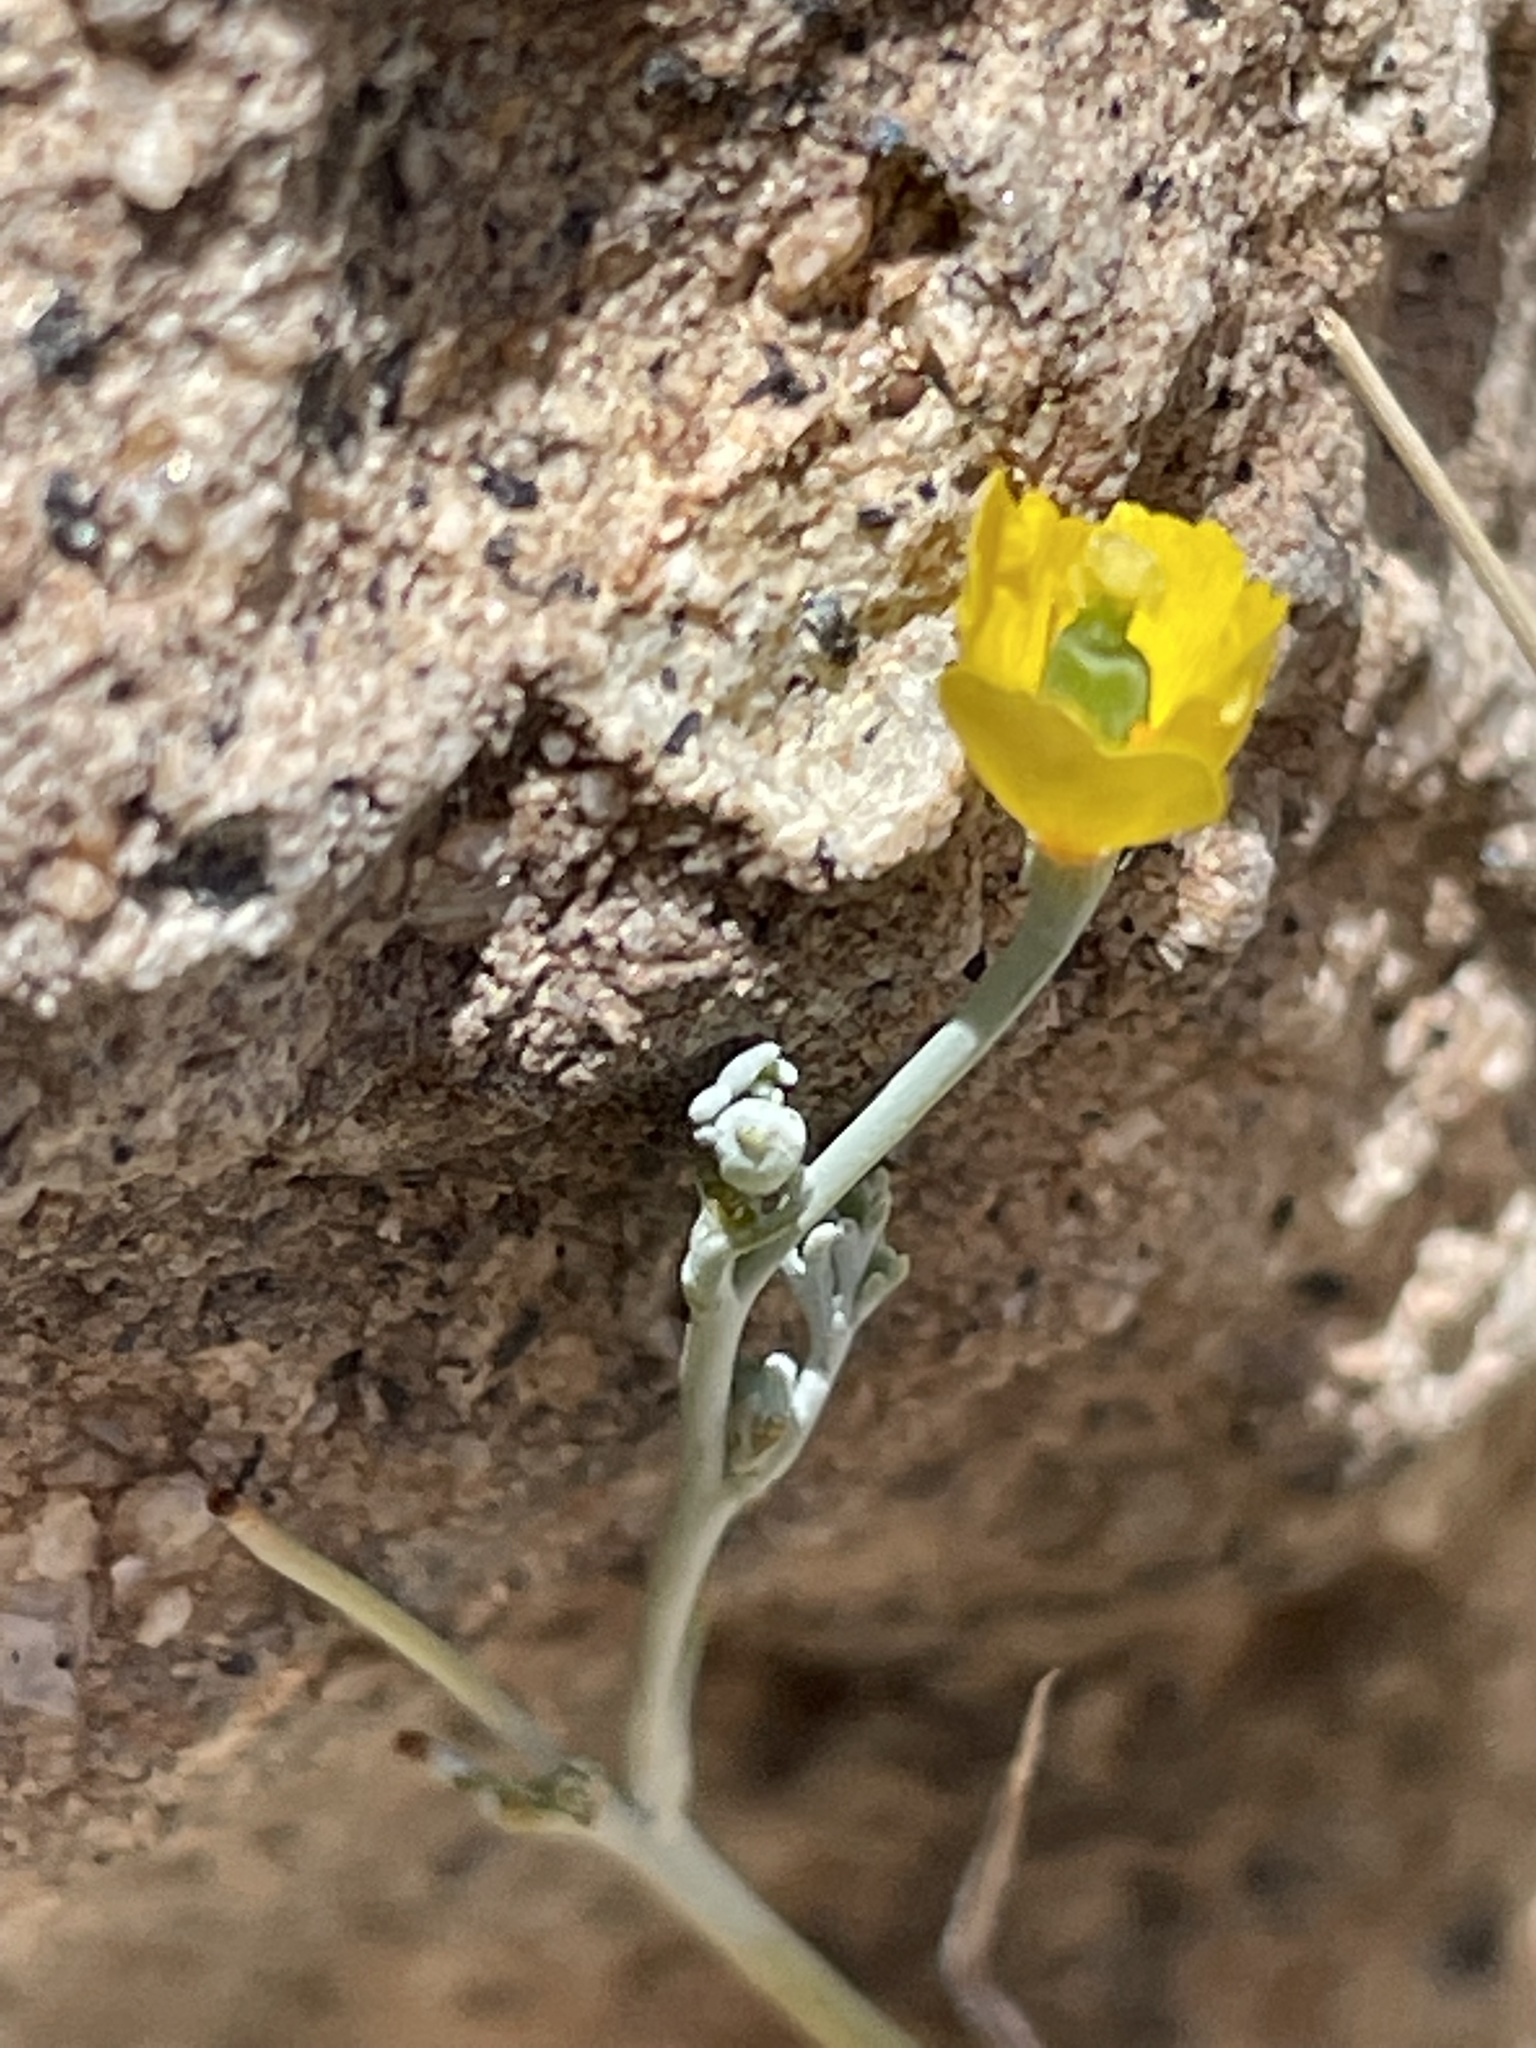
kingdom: Plantae
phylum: Tracheophyta
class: Magnoliopsida
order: Ranunculales
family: Papaveraceae
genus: Eschscholzia
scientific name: Eschscholzia minutiflora
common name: Small-flower california-poppy
